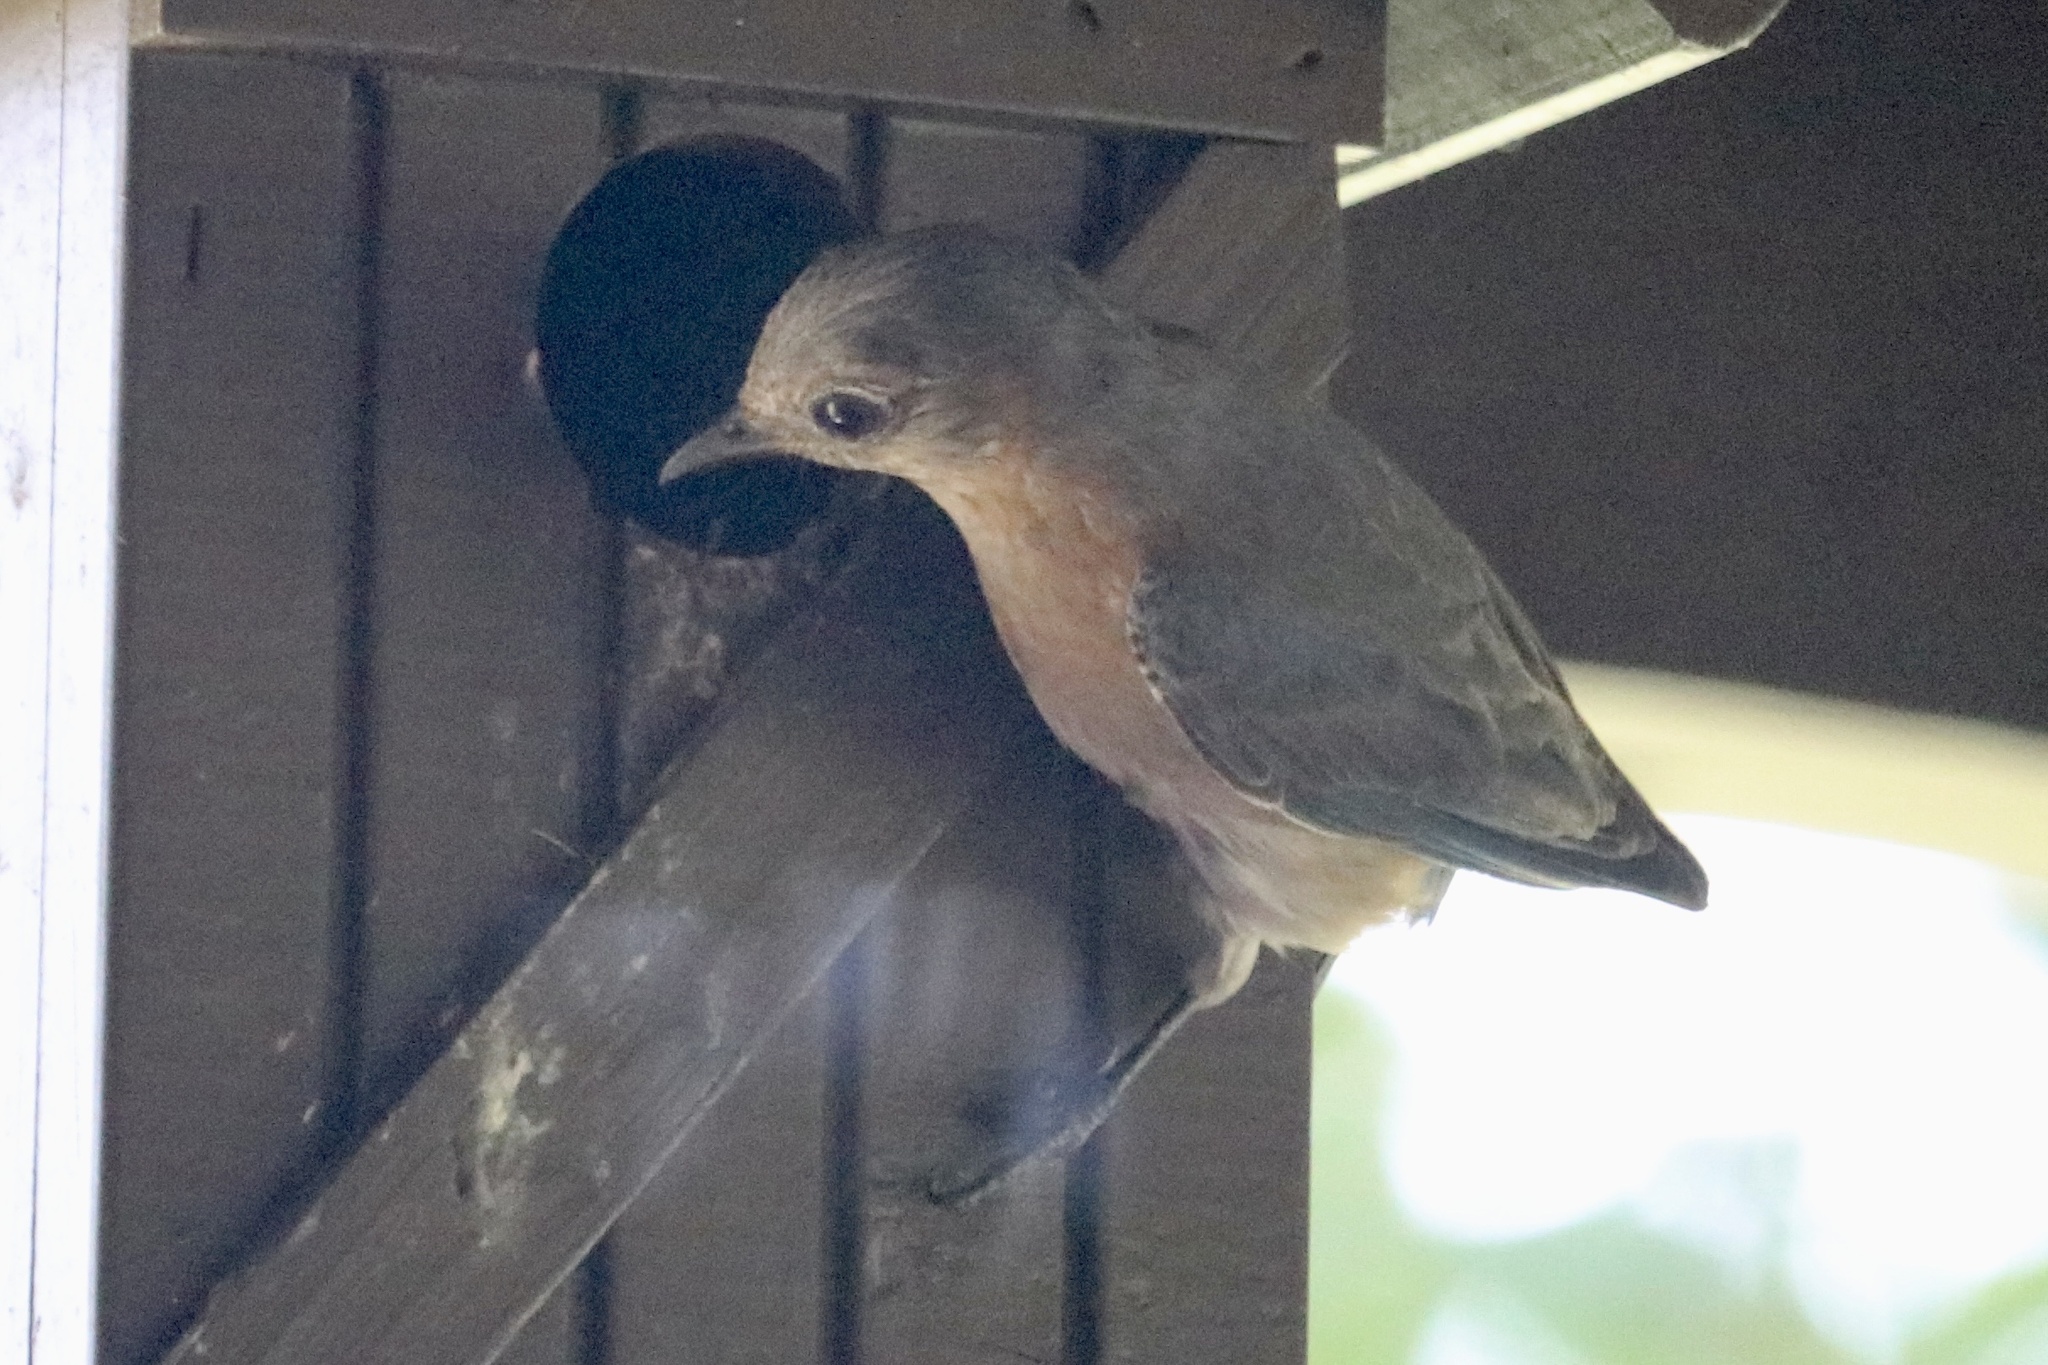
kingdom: Animalia
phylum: Chordata
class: Aves
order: Passeriformes
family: Turdidae
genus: Sialia
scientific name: Sialia sialis
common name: Eastern bluebird
